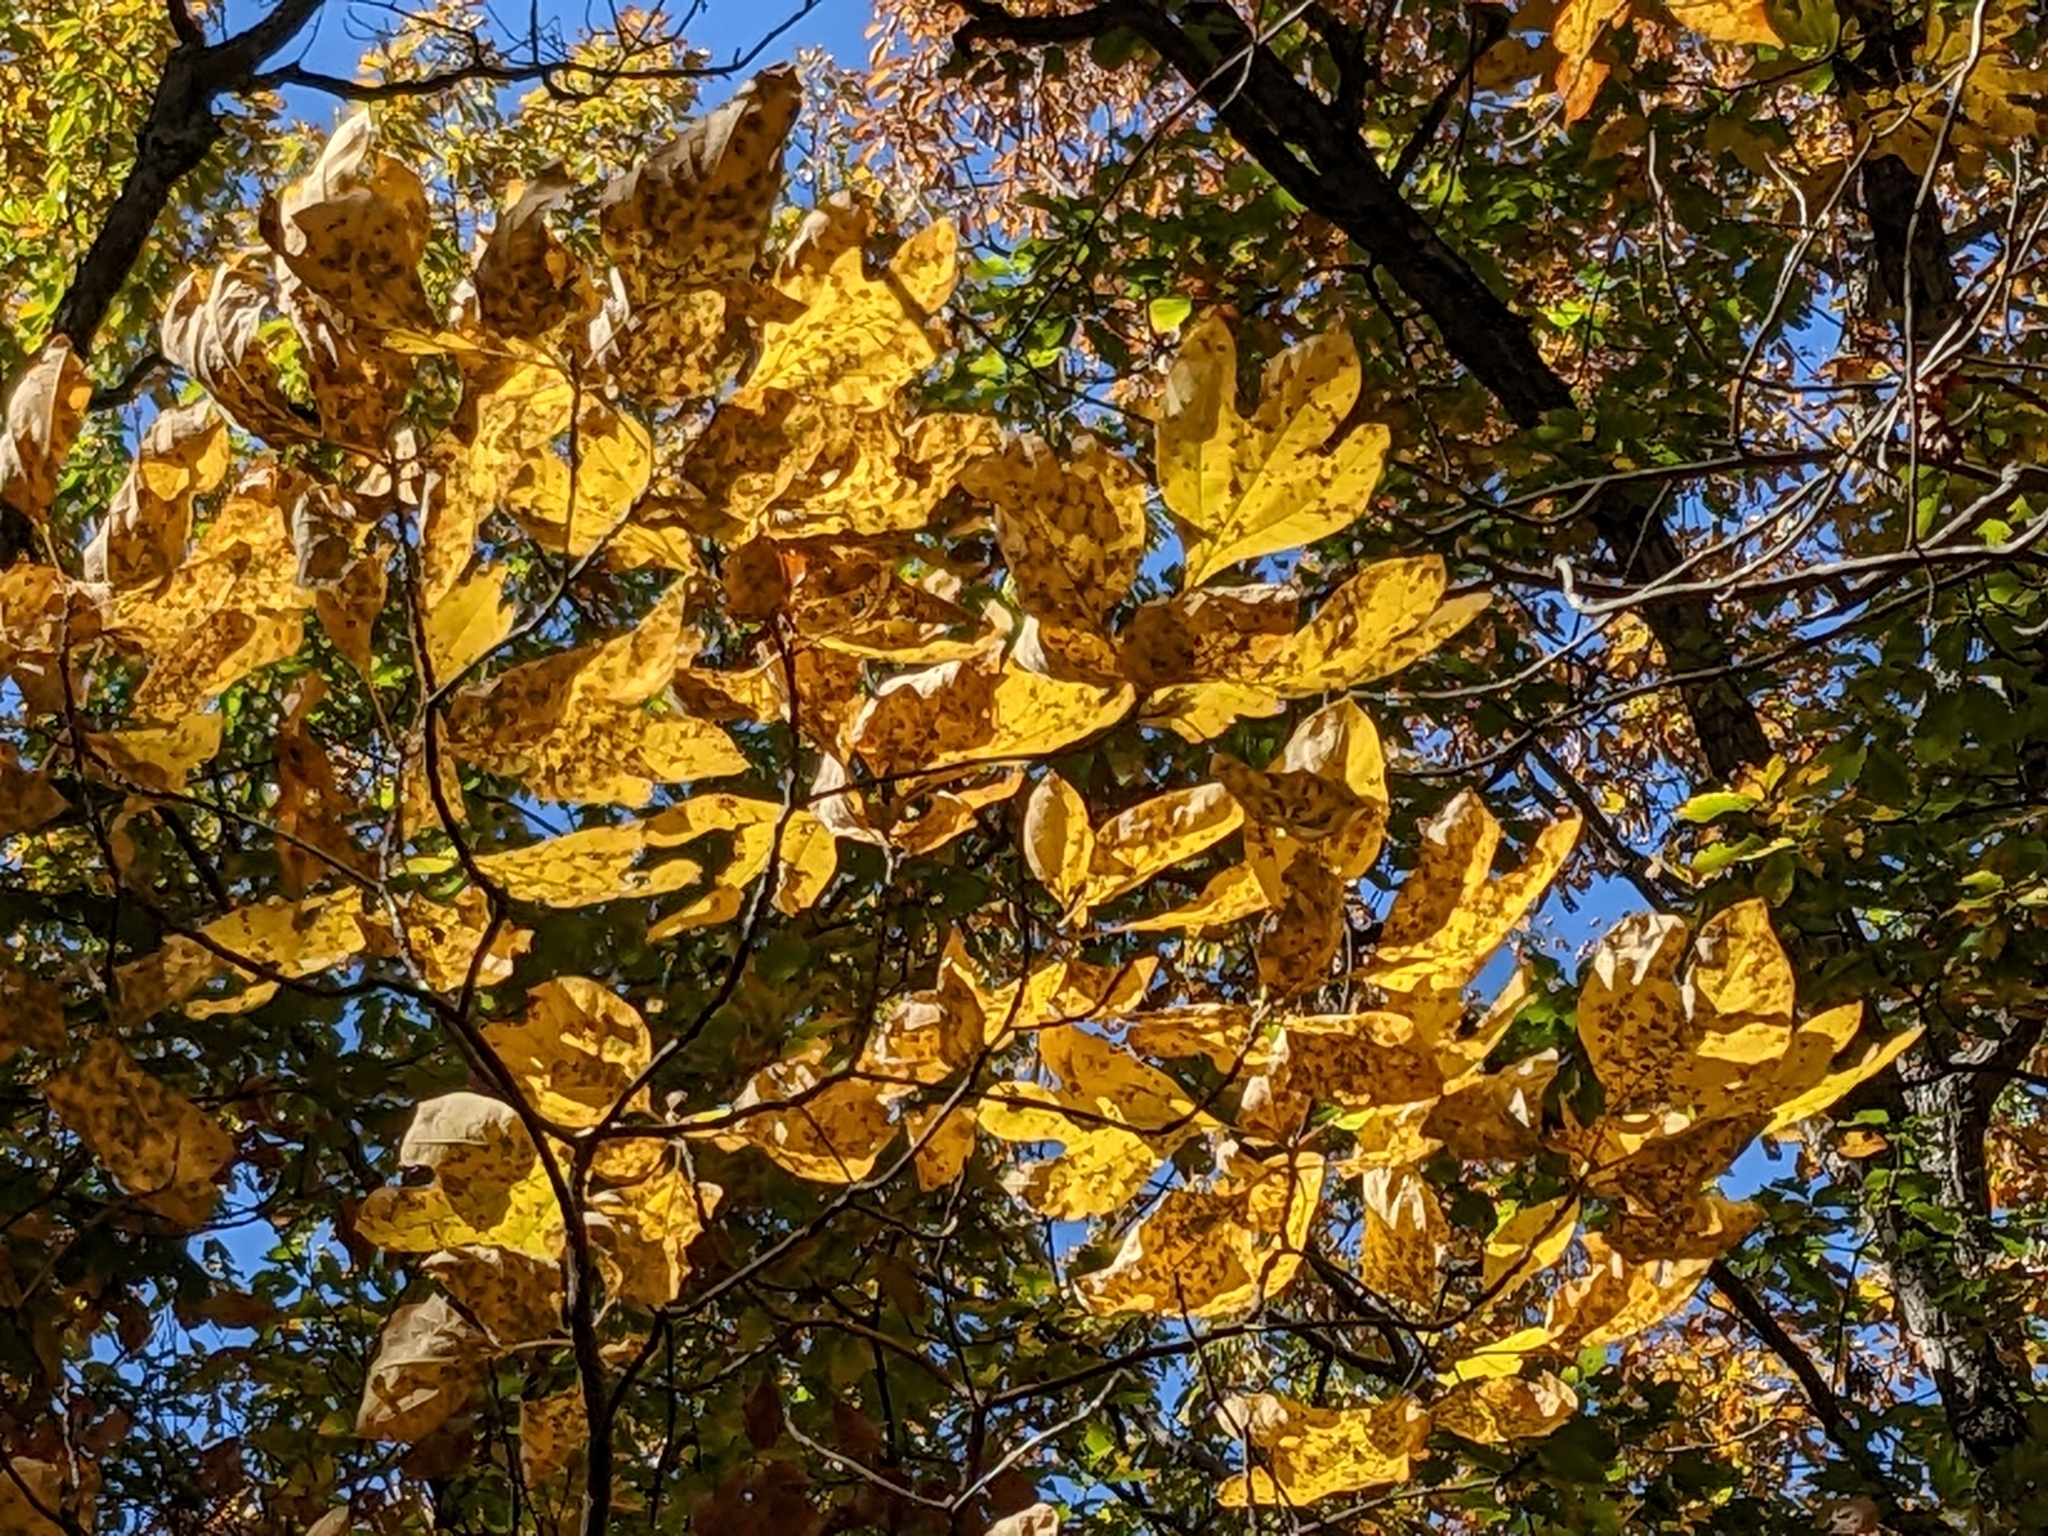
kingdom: Plantae
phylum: Tracheophyta
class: Magnoliopsida
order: Laurales
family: Lauraceae
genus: Sassafras
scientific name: Sassafras albidum
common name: Sassafras
